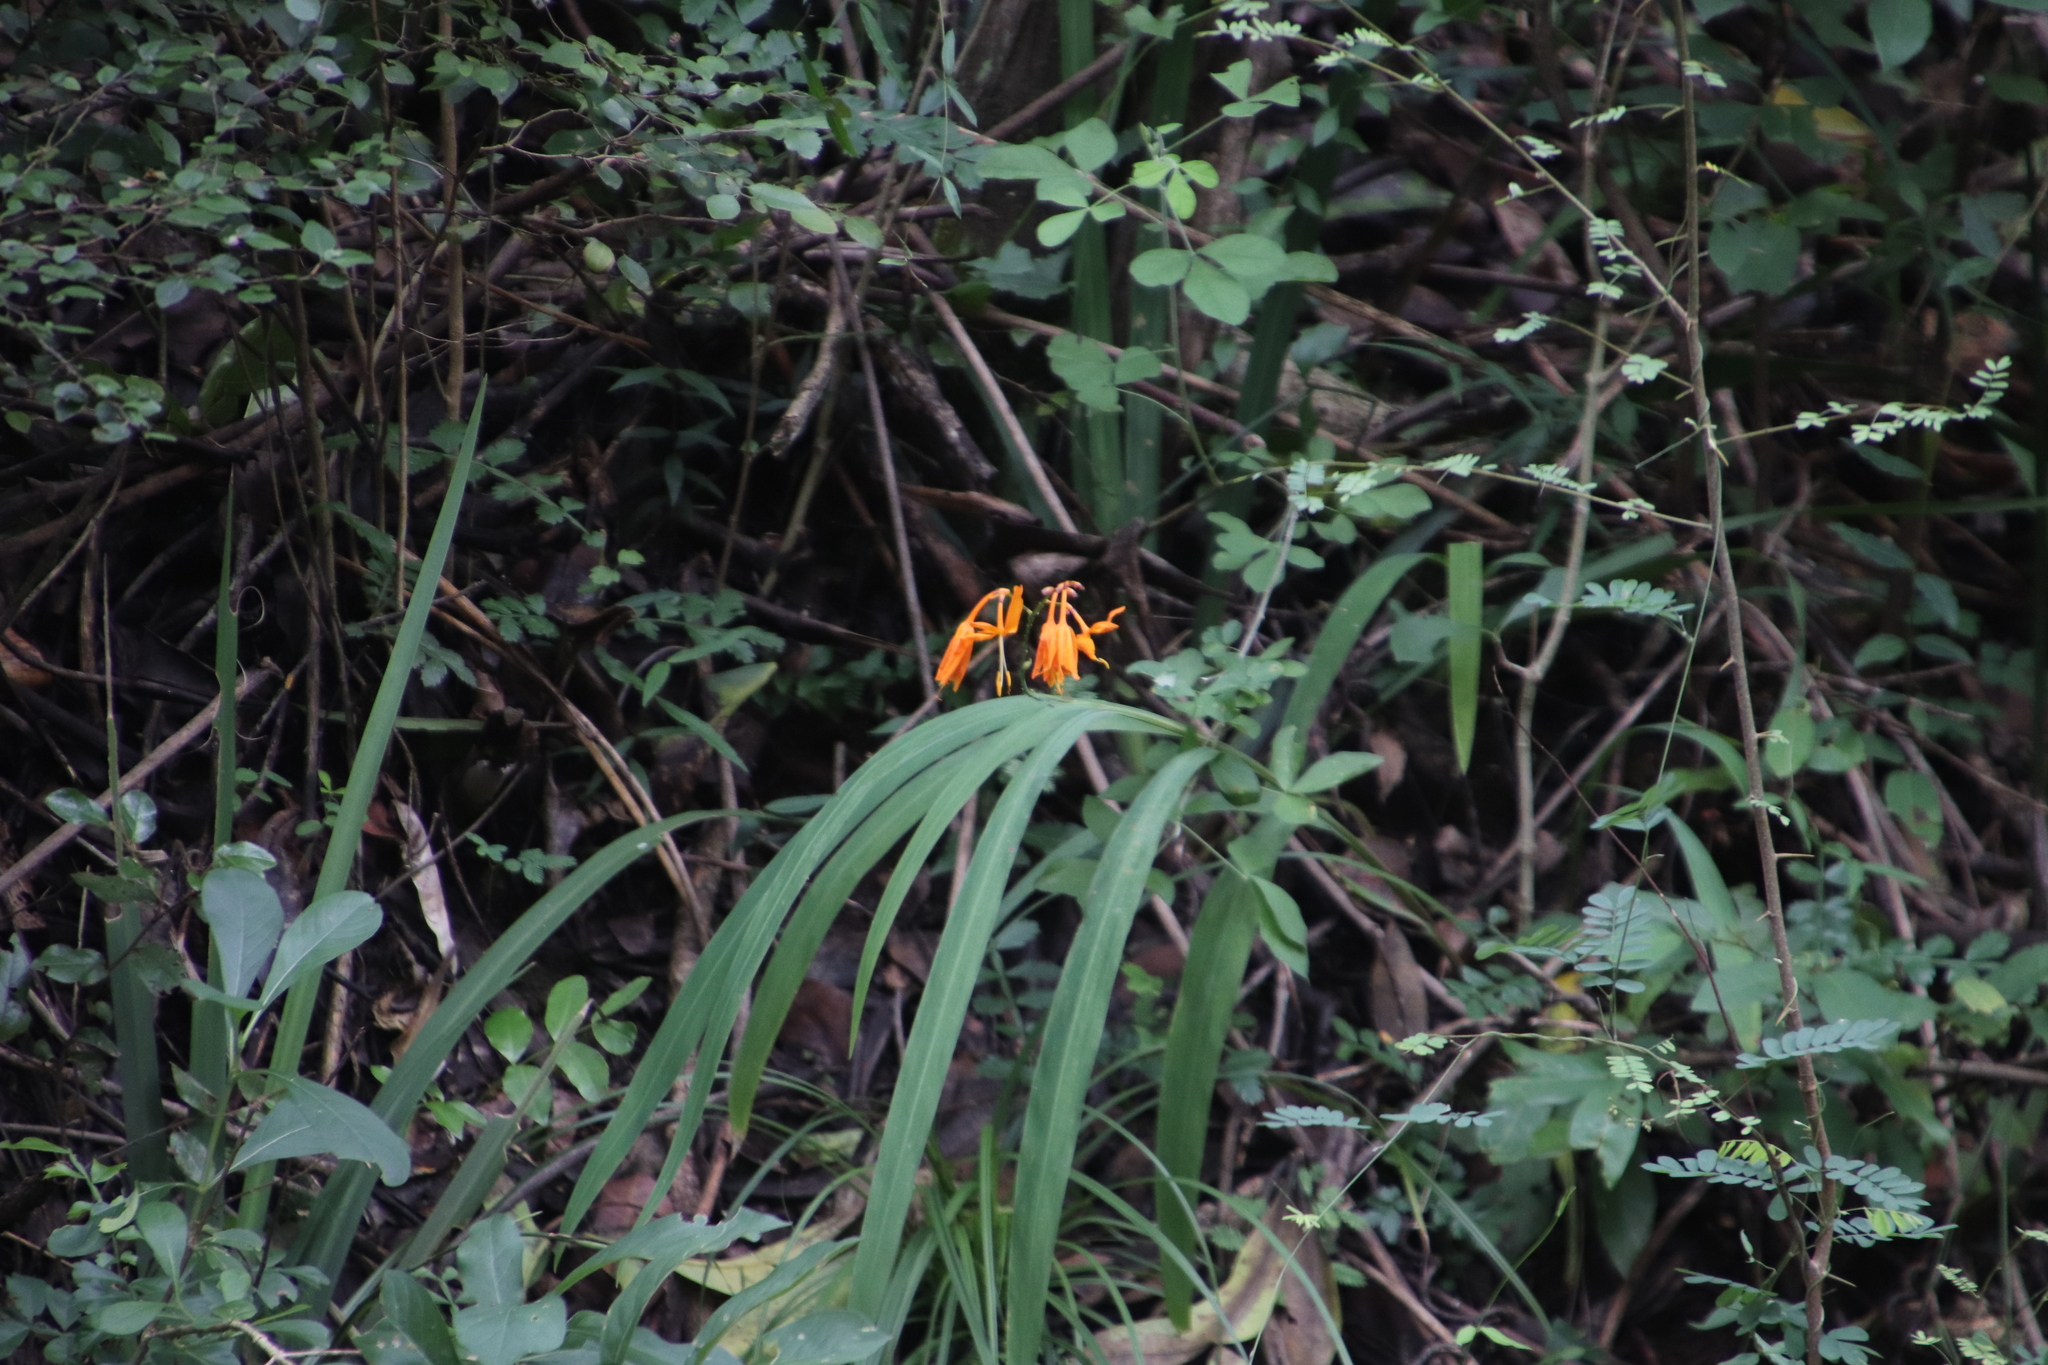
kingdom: Plantae
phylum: Tracheophyta
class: Liliopsida
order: Asparagales
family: Iridaceae
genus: Crocosmia
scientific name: Crocosmia aurea
